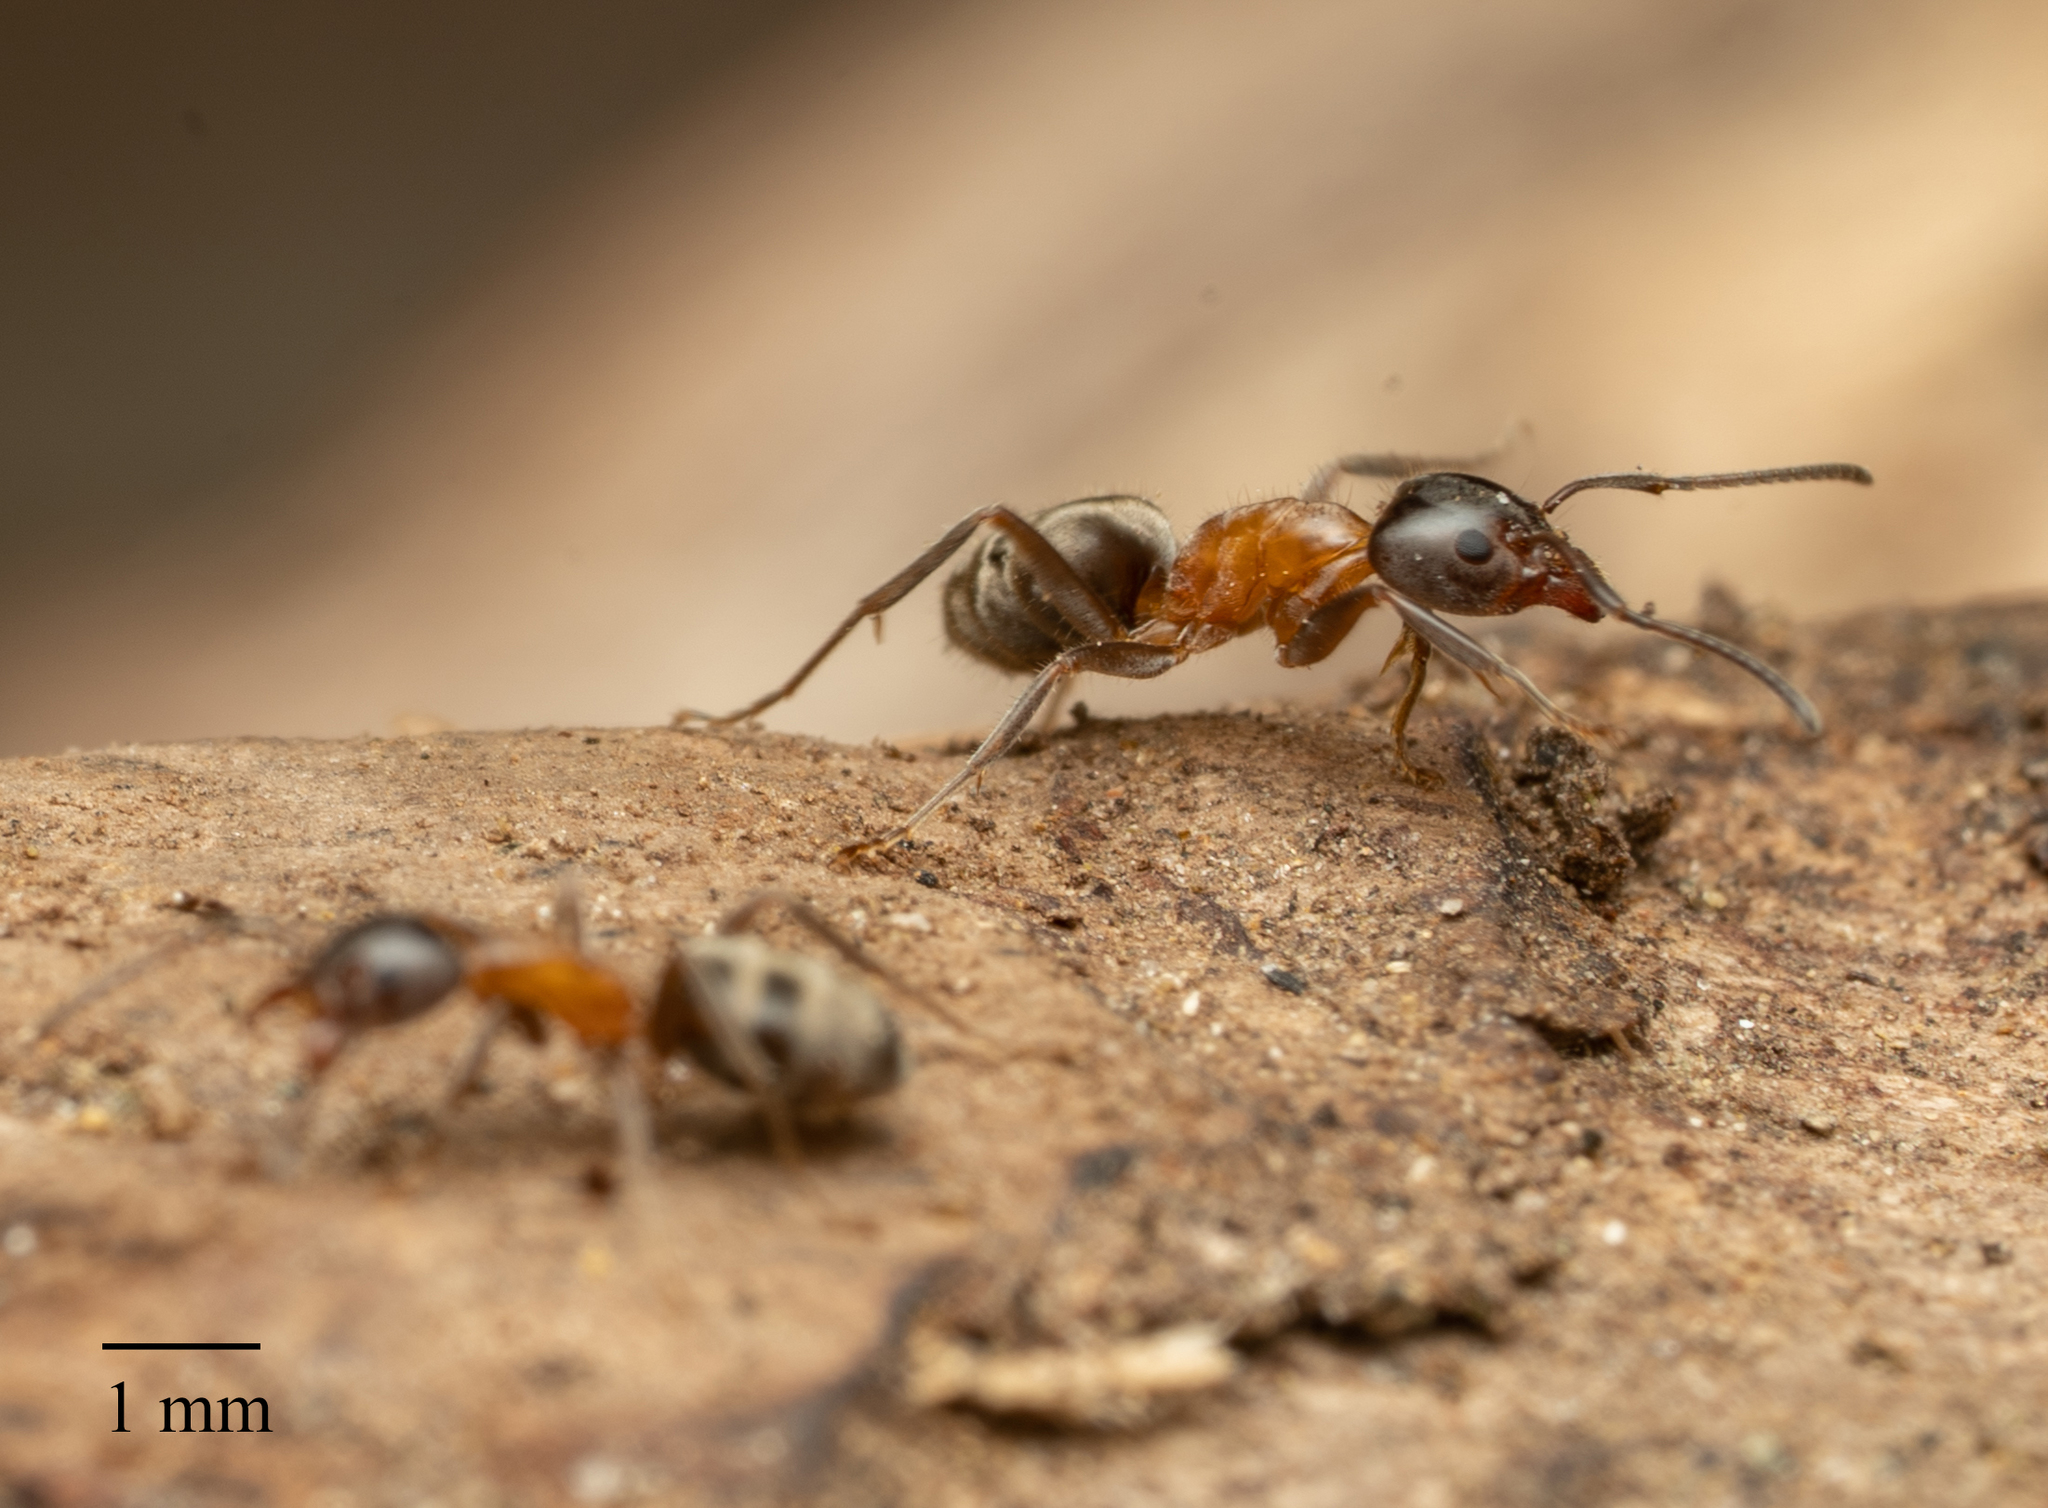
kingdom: Animalia
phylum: Arthropoda
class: Insecta
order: Hymenoptera
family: Formicidae
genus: Liometopum
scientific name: Liometopum occidentale
